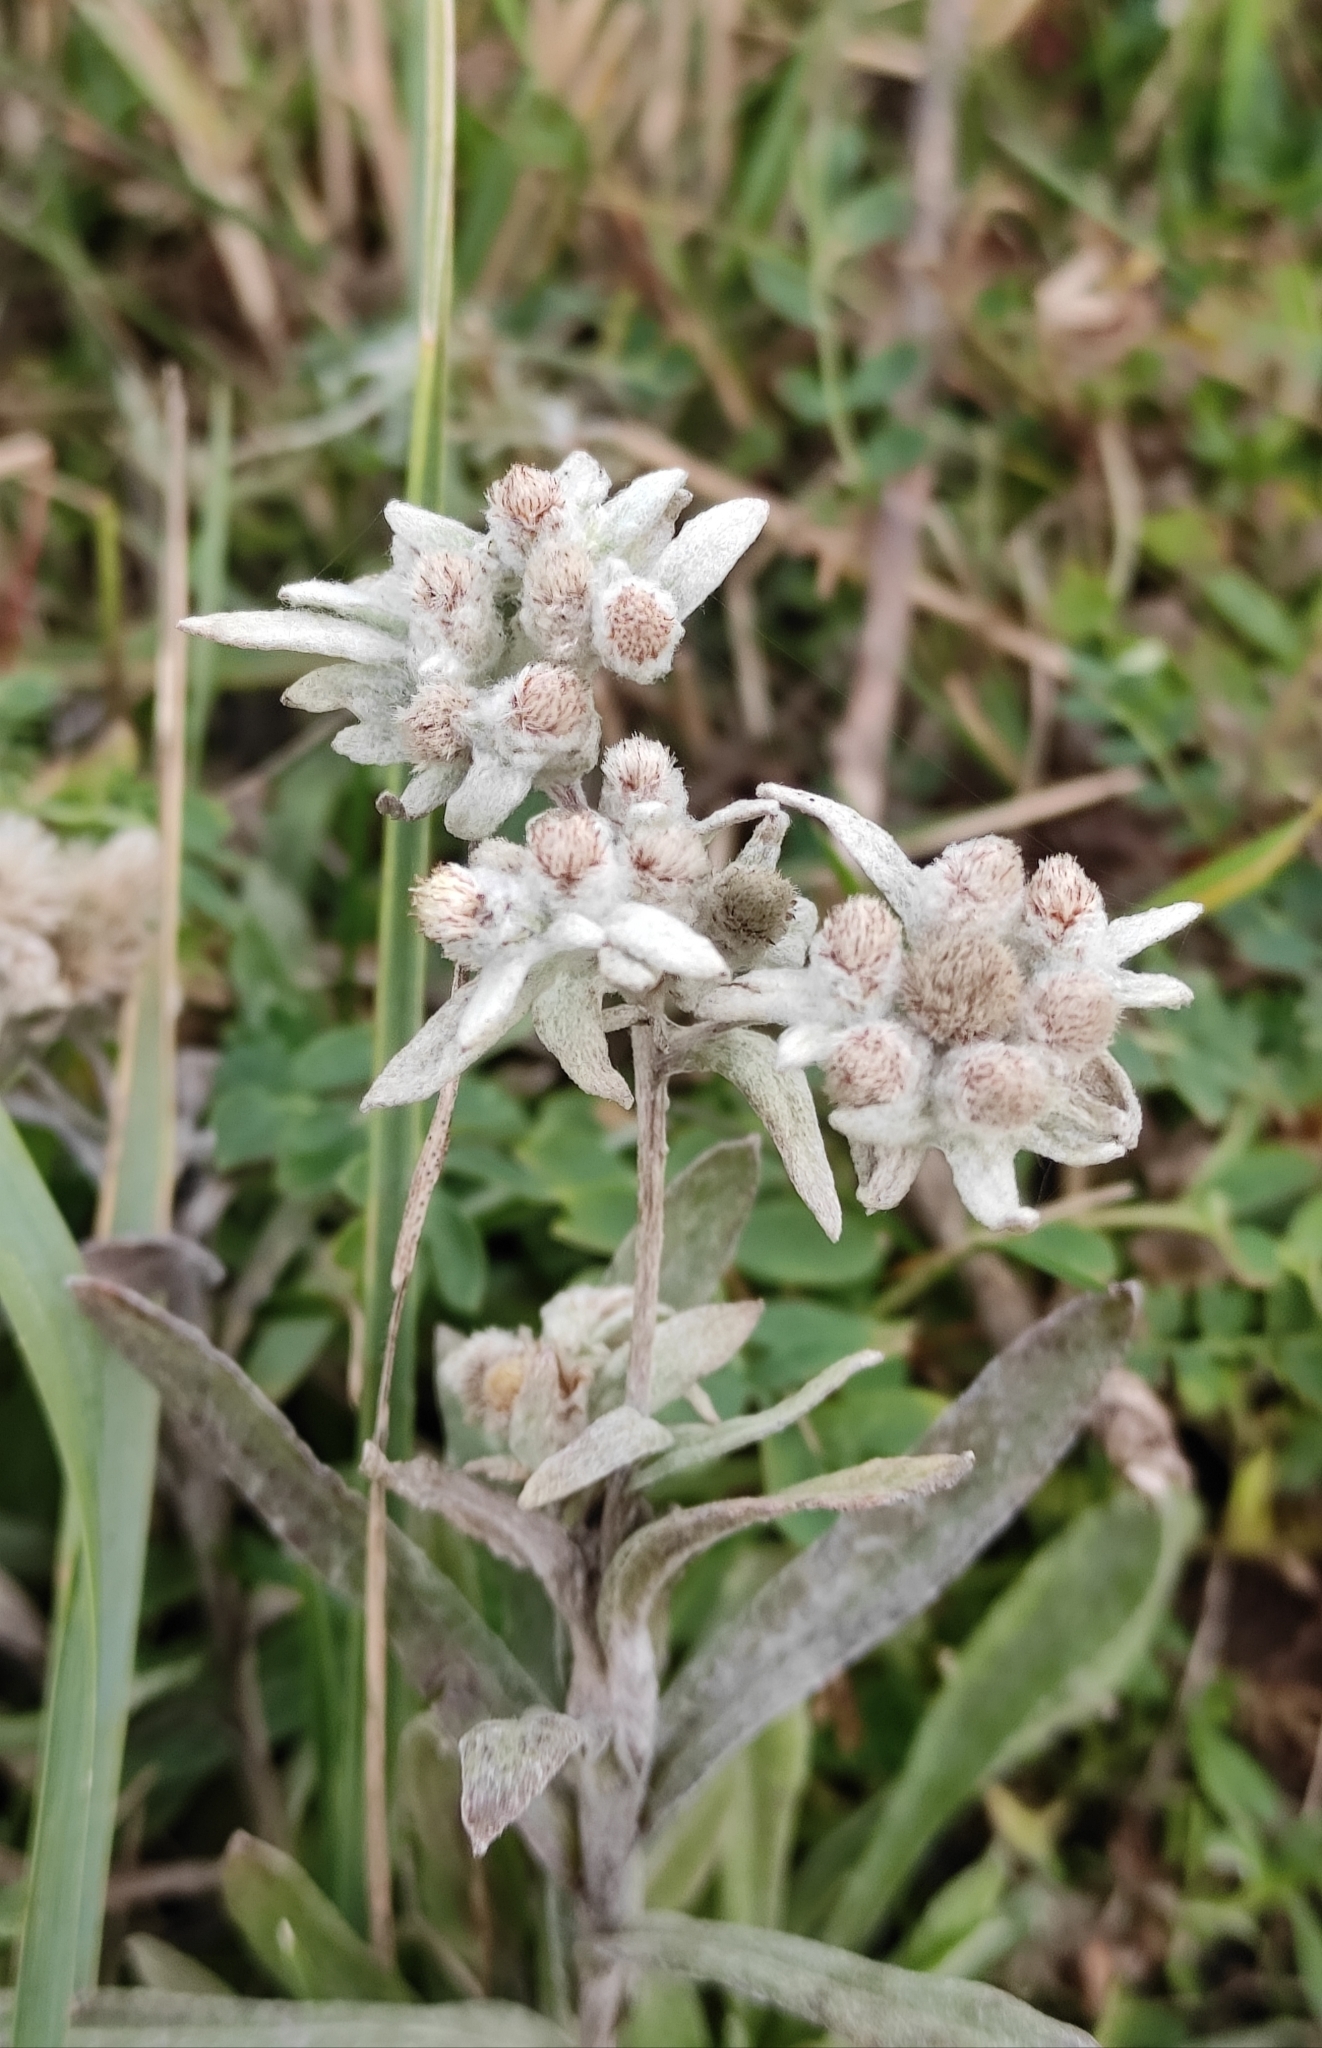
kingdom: Plantae
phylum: Tracheophyta
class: Magnoliopsida
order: Asterales
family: Asteraceae
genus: Leontopodium
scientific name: Leontopodium conglobatum
